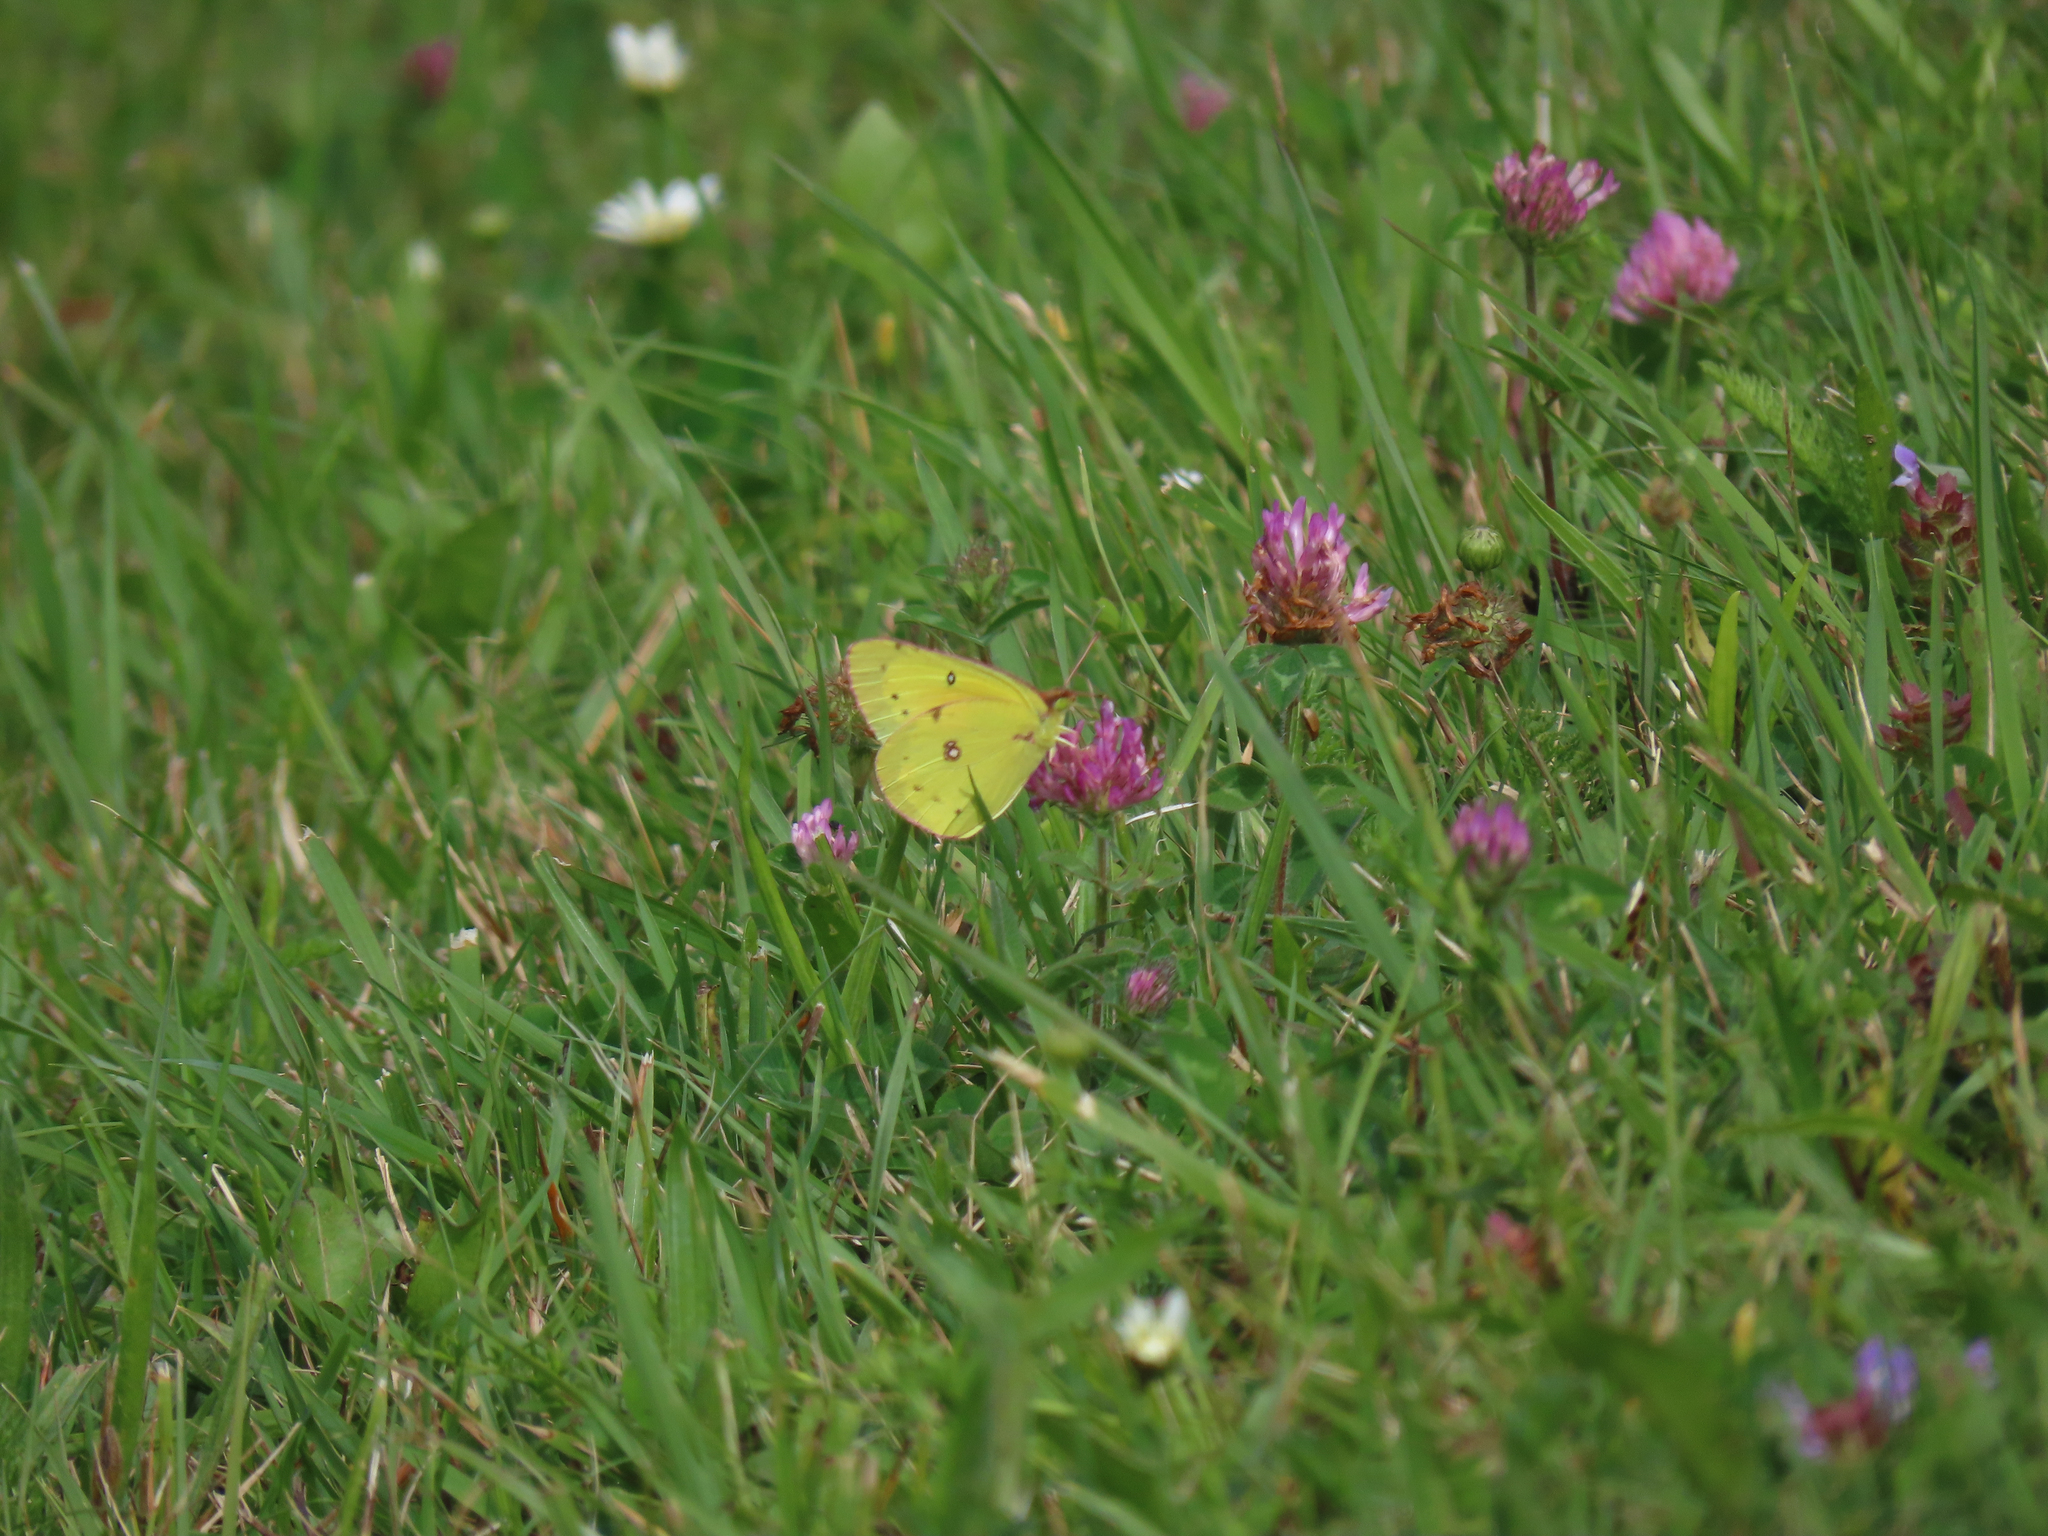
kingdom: Animalia
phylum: Arthropoda
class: Insecta
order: Lepidoptera
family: Pieridae
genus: Colias
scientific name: Colias eurytheme
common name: Alfalfa butterfly
